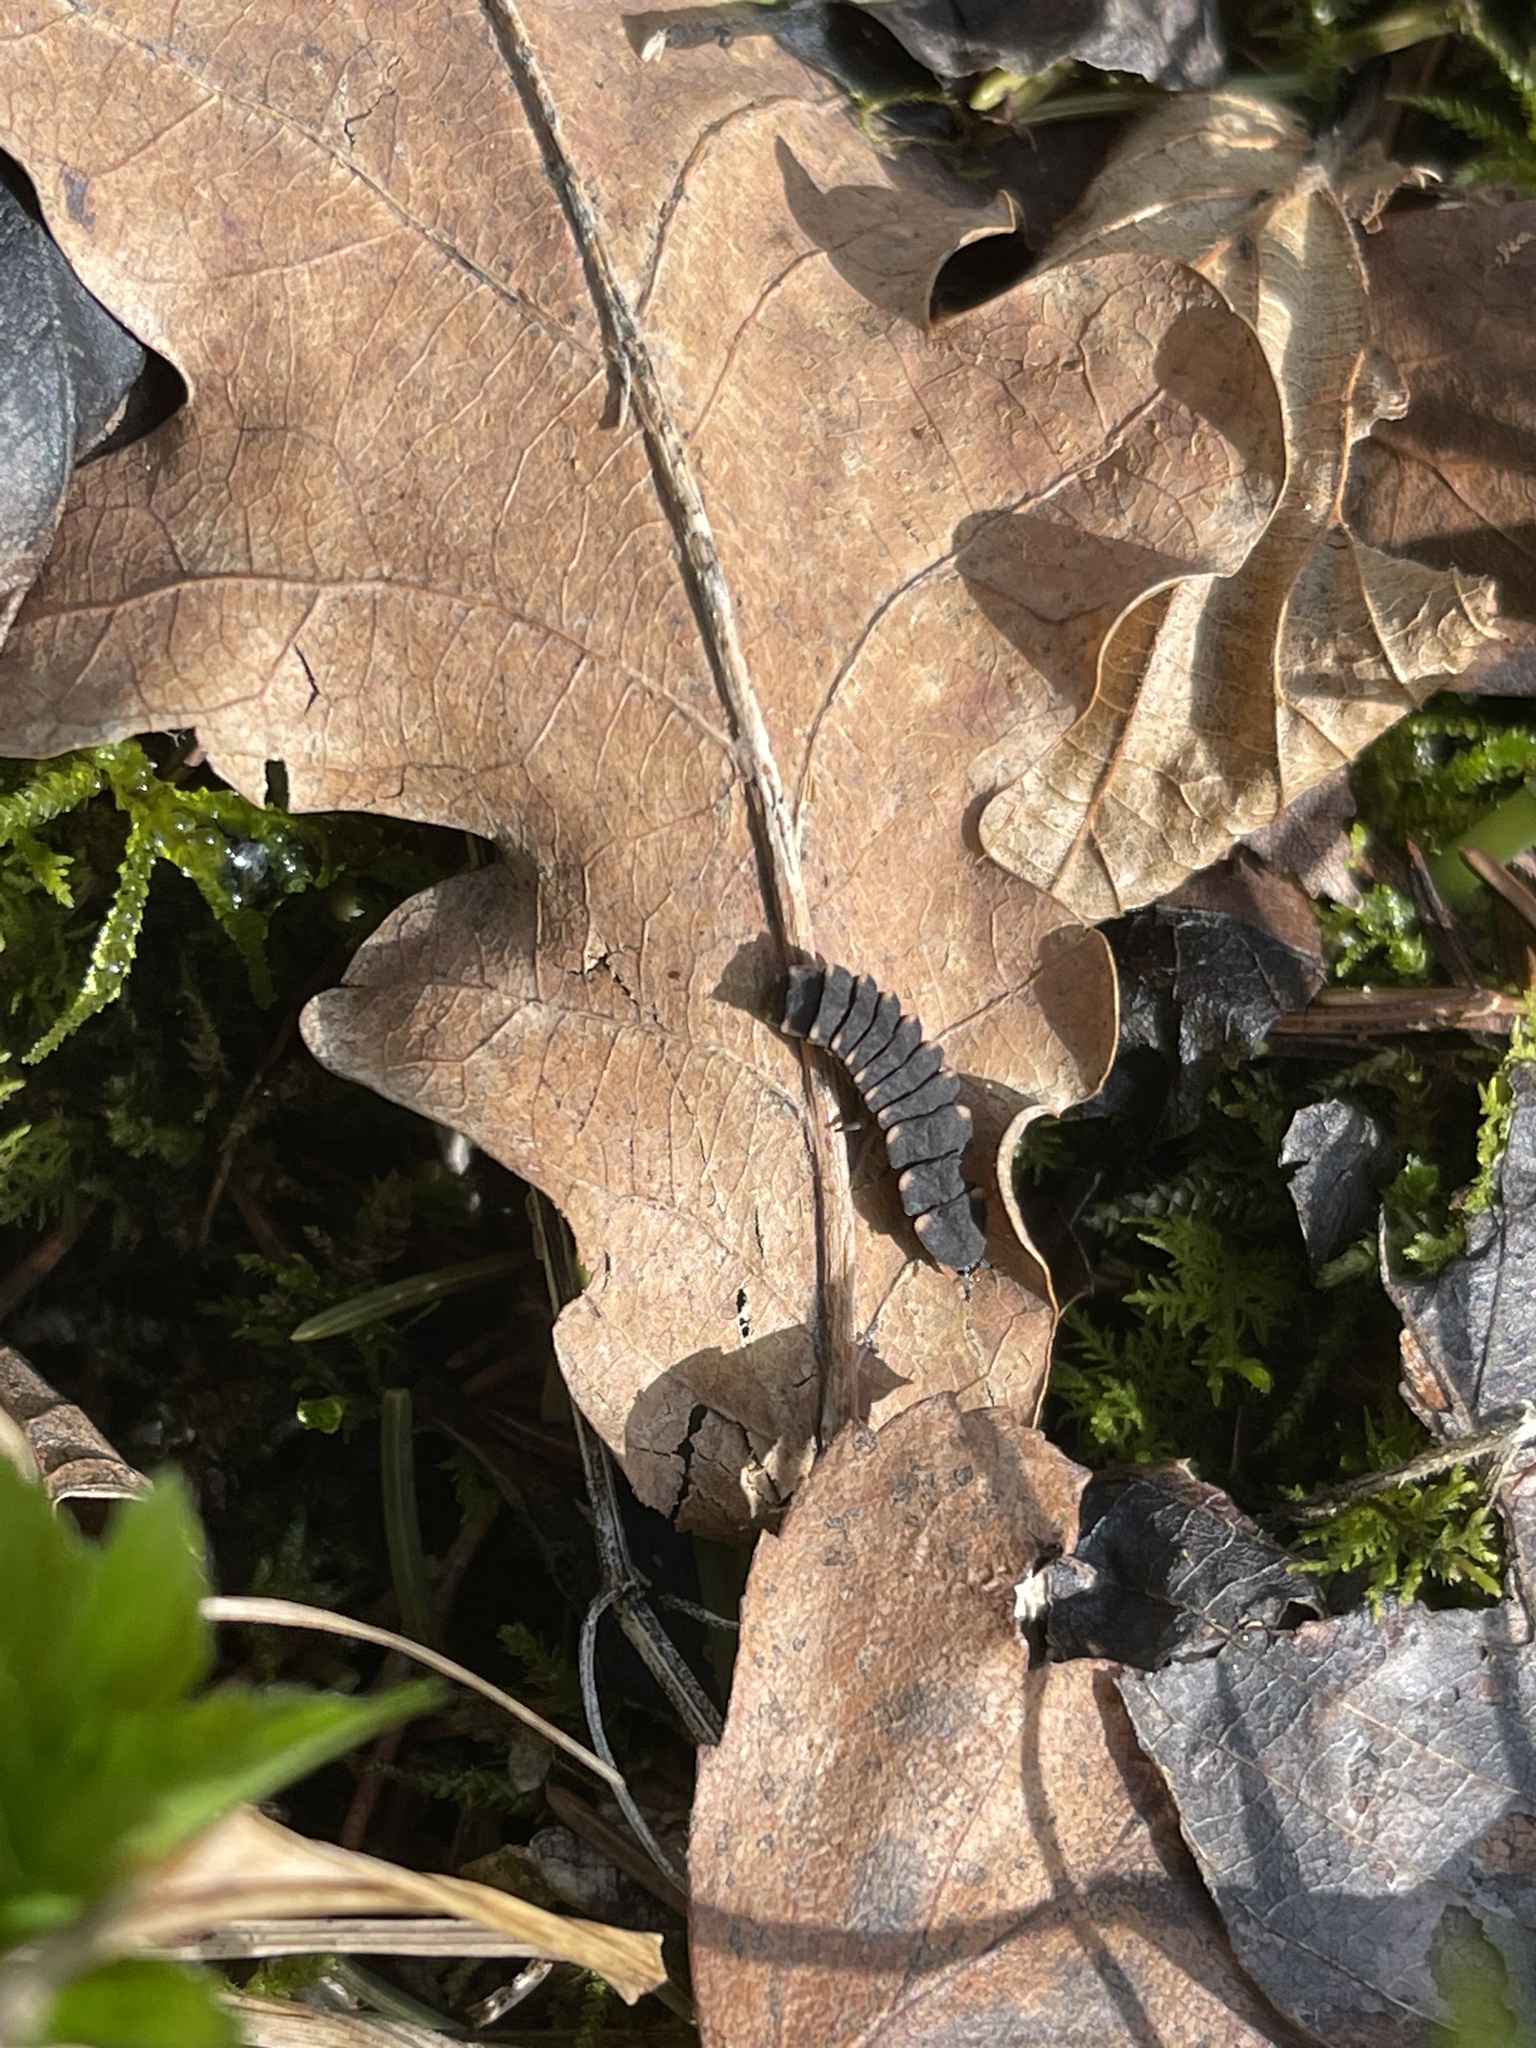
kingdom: Animalia
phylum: Arthropoda
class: Insecta
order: Coleoptera
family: Lampyridae
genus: Lampyris
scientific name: Lampyris noctiluca
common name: Glow-worm
